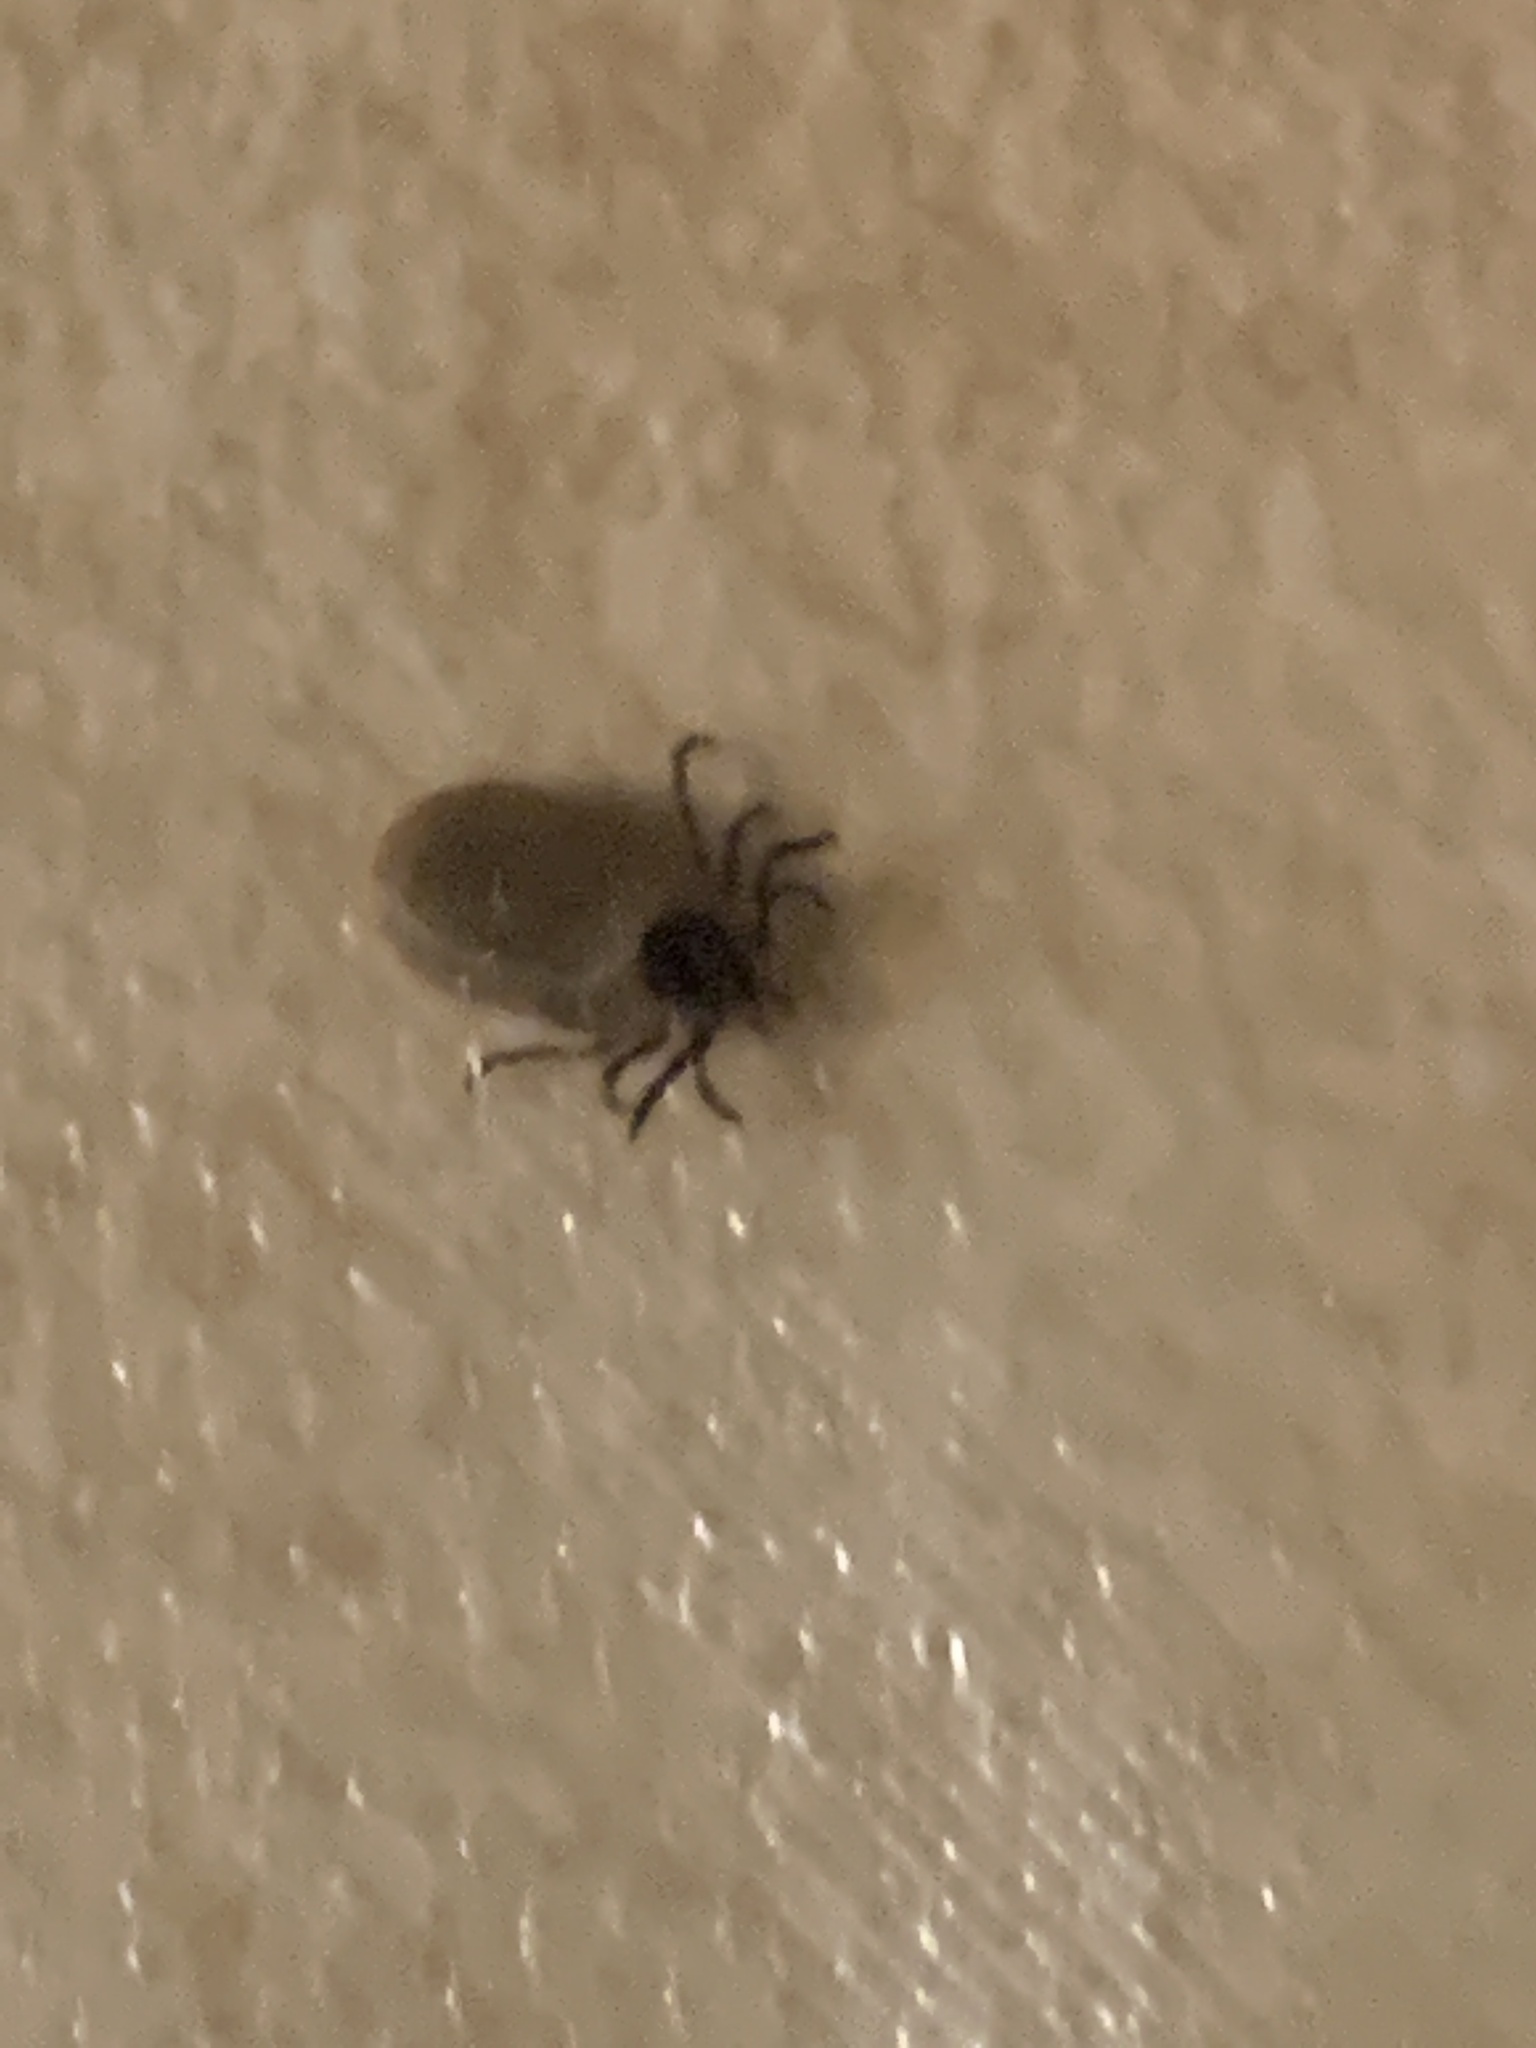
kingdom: Animalia
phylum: Arthropoda
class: Arachnida
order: Ixodida
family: Ixodidae
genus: Ixodes
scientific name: Ixodes scapularis
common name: Black legged tick
